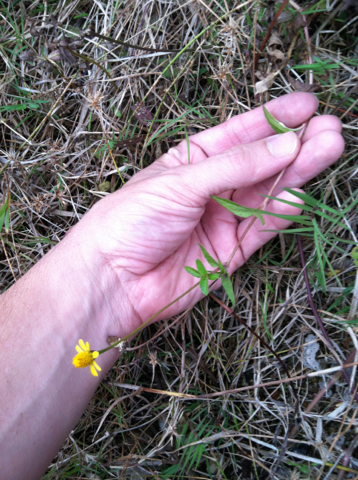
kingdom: Plantae
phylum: Tracheophyta
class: Magnoliopsida
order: Asterales
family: Asteraceae
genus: Acmella
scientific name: Acmella repens
